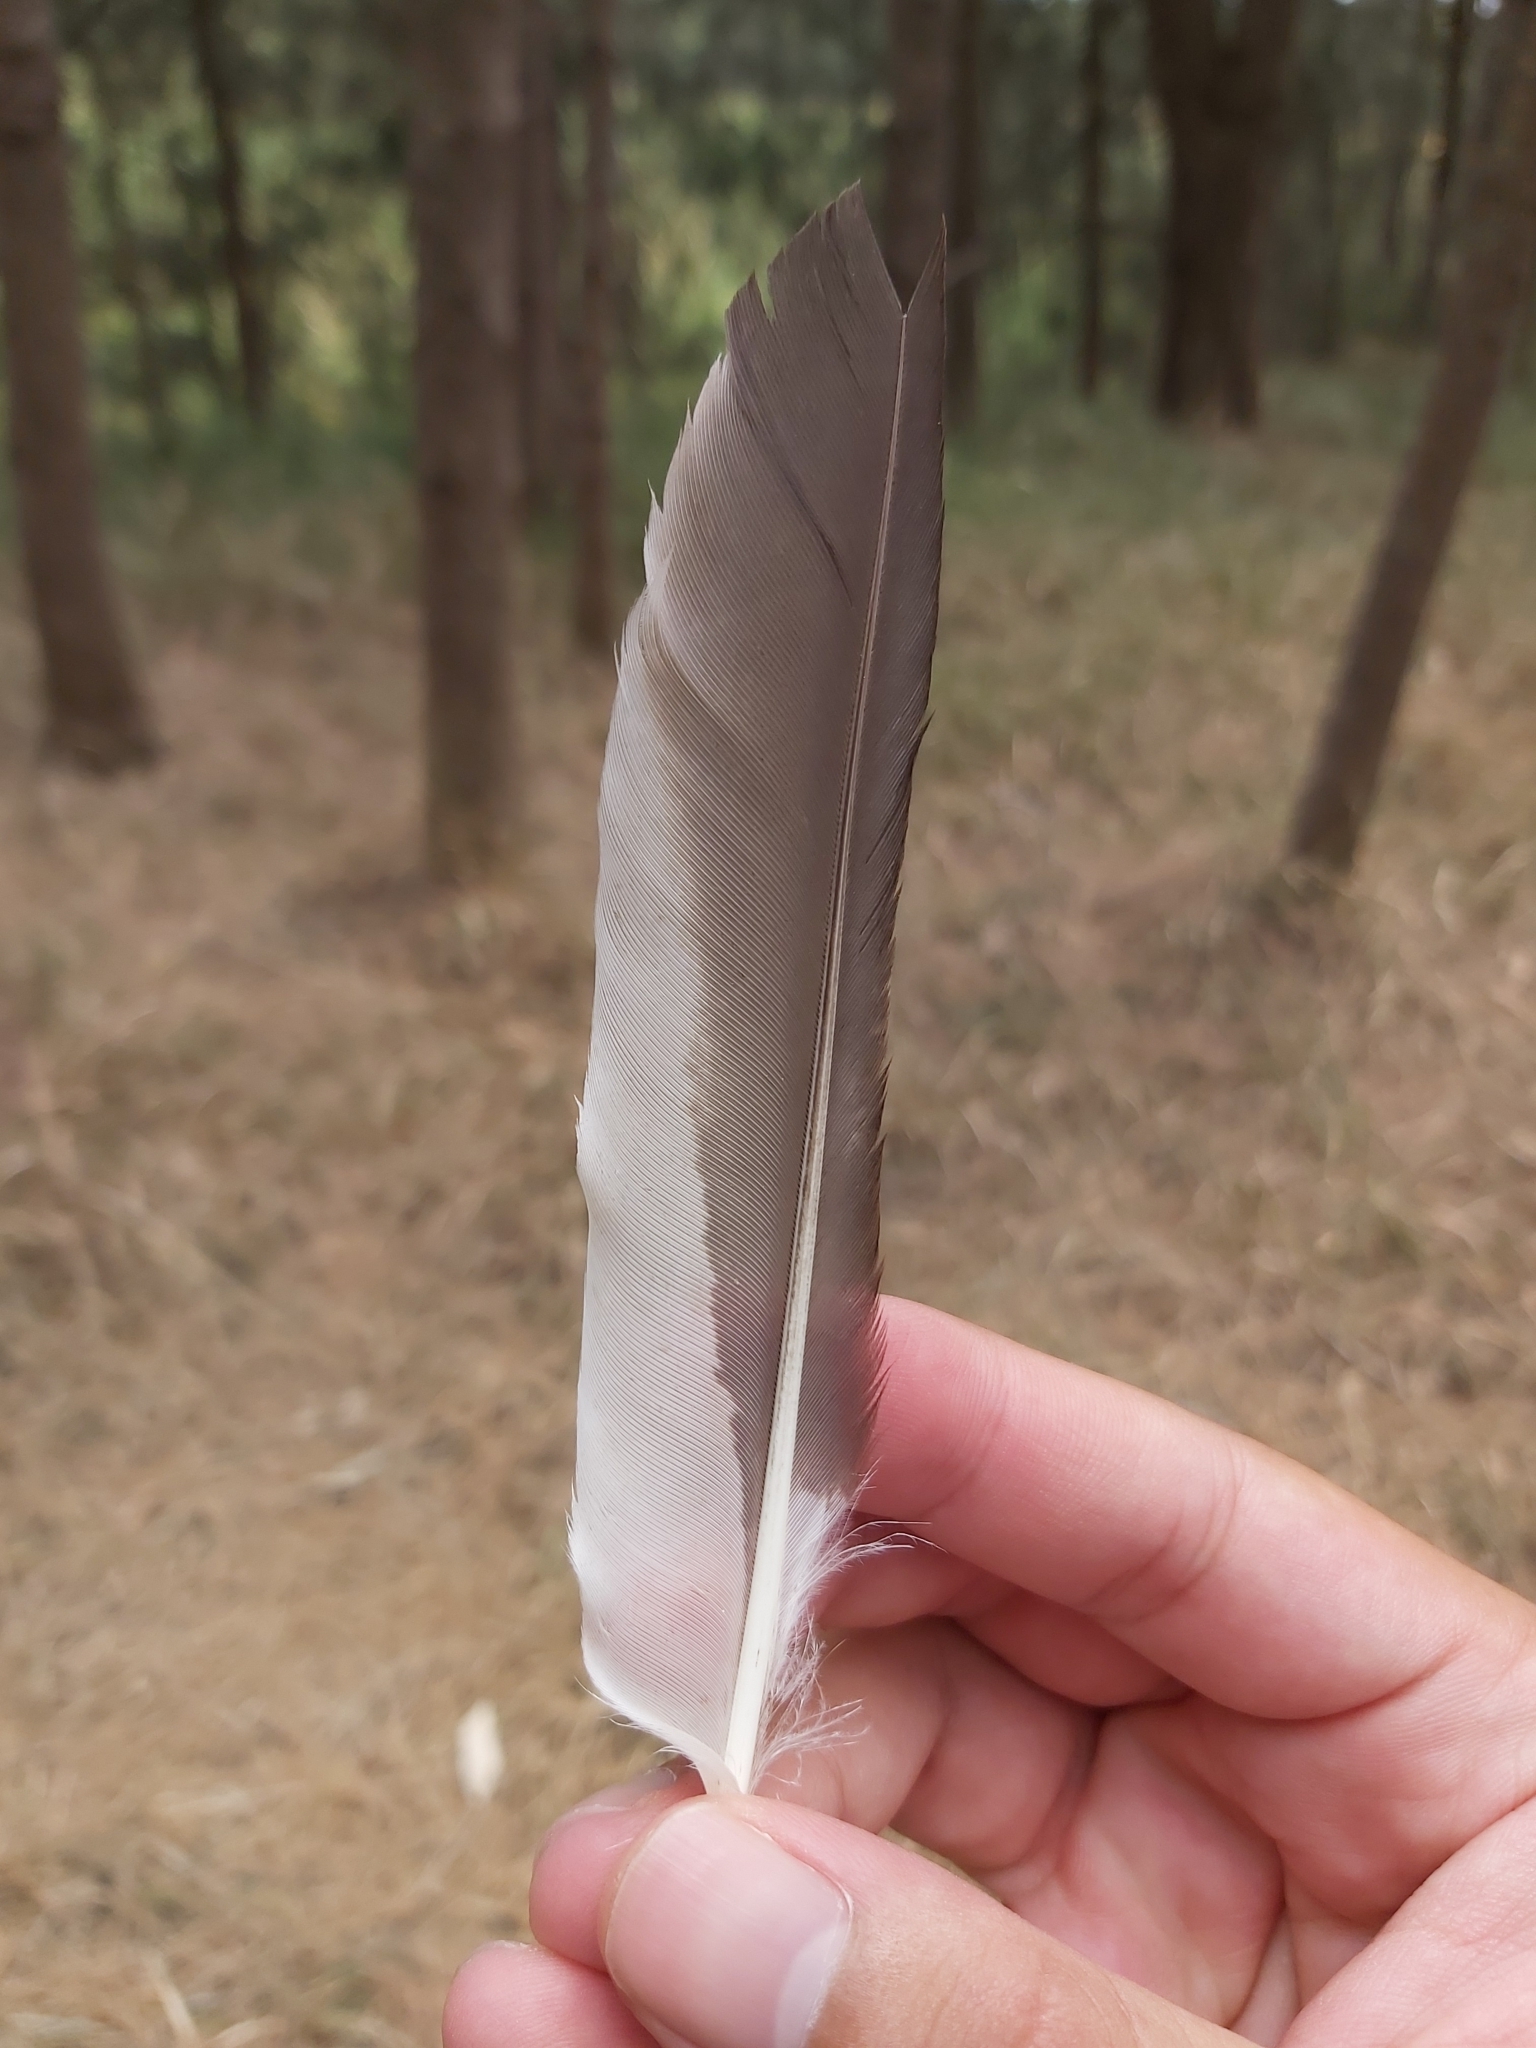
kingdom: Animalia
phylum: Chordata
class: Aves
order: Coraciiformes
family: Alcedinidae
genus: Dacelo
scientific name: Dacelo novaeguineae
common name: Laughing kookaburra
